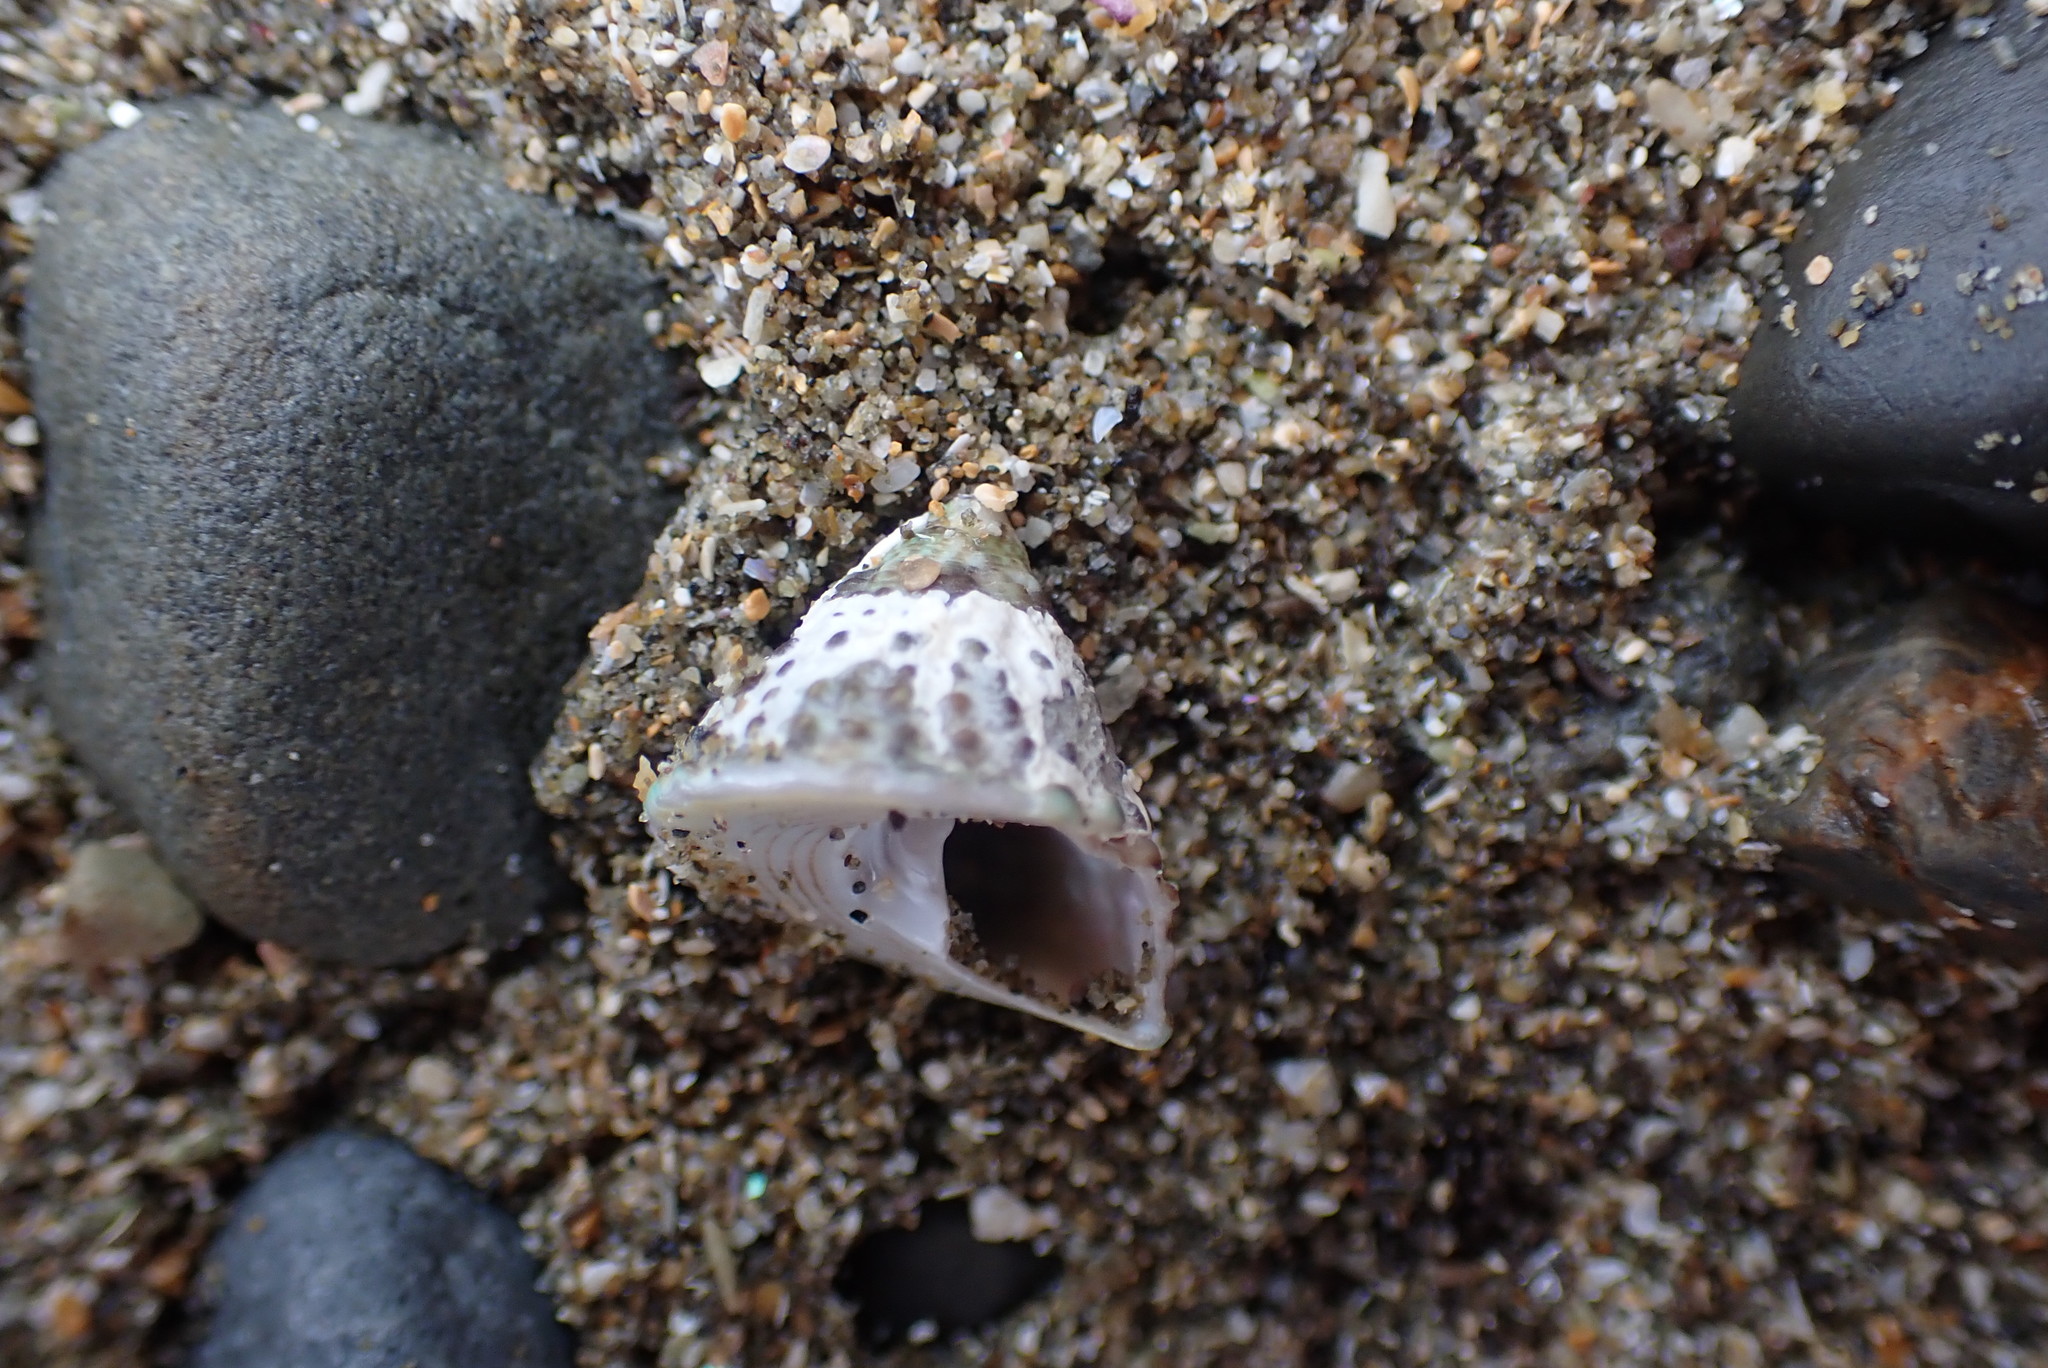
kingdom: Animalia
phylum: Mollusca
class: Gastropoda
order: Trochida
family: Trochidae
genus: Coelotrochus
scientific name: Coelotrochus viridis
